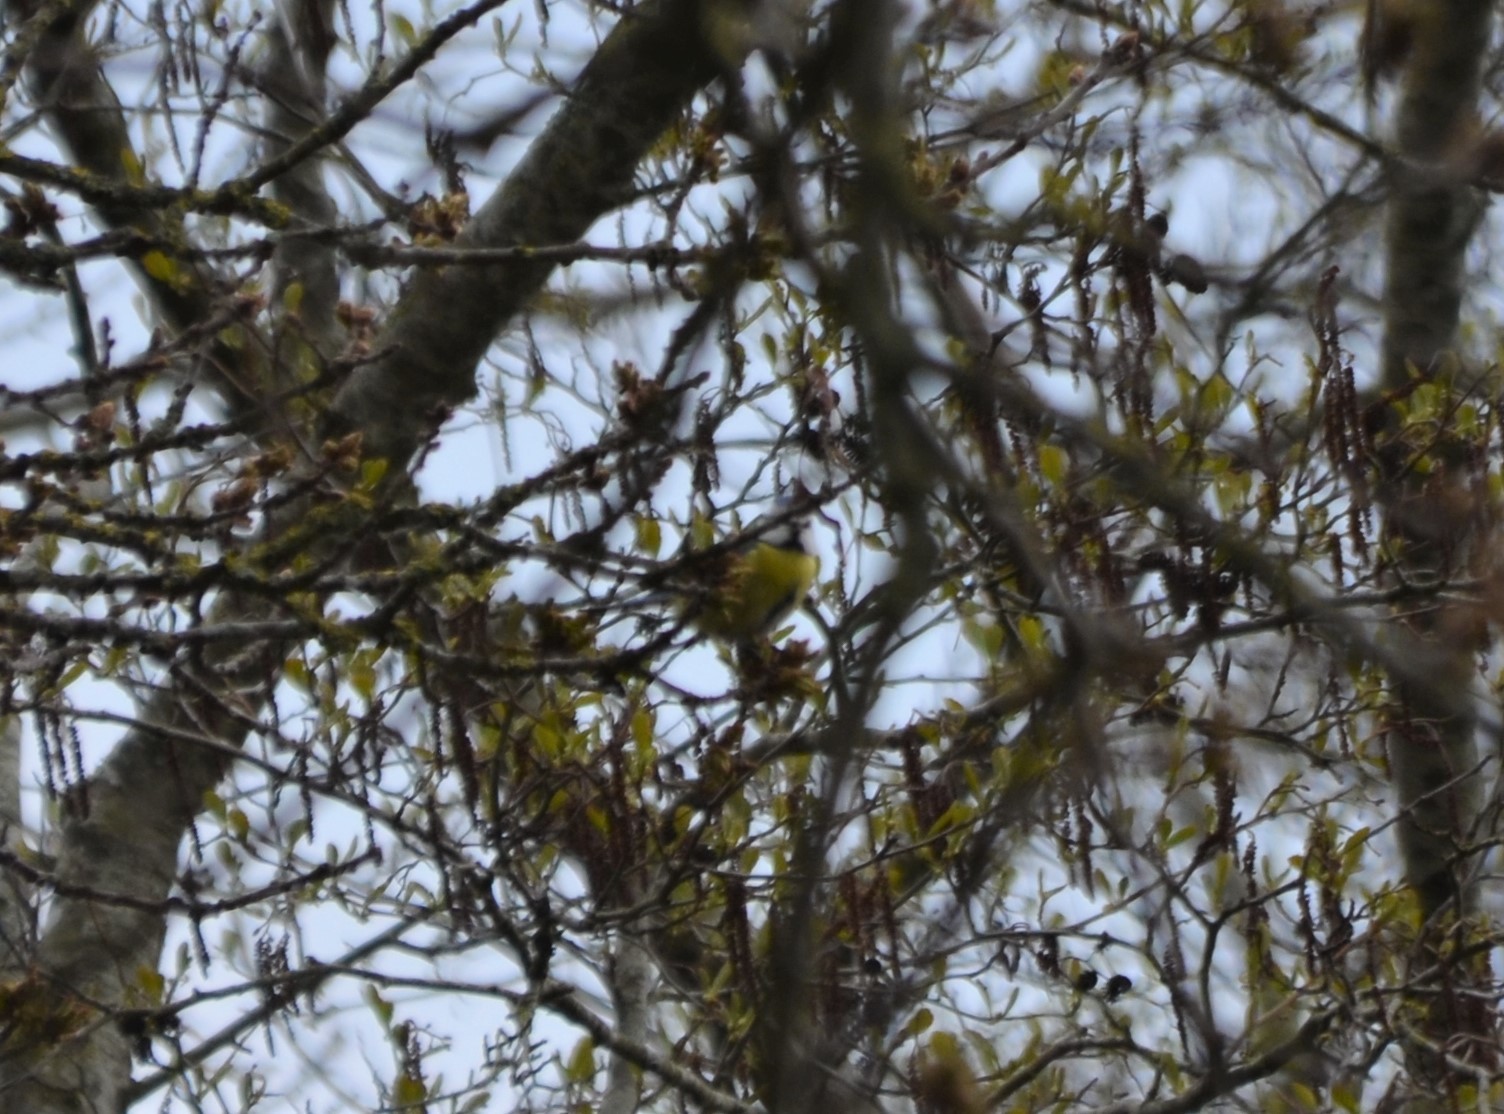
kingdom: Animalia
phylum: Chordata
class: Aves
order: Passeriformes
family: Paridae
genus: Cyanistes
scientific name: Cyanistes caeruleus
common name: Eurasian blue tit
